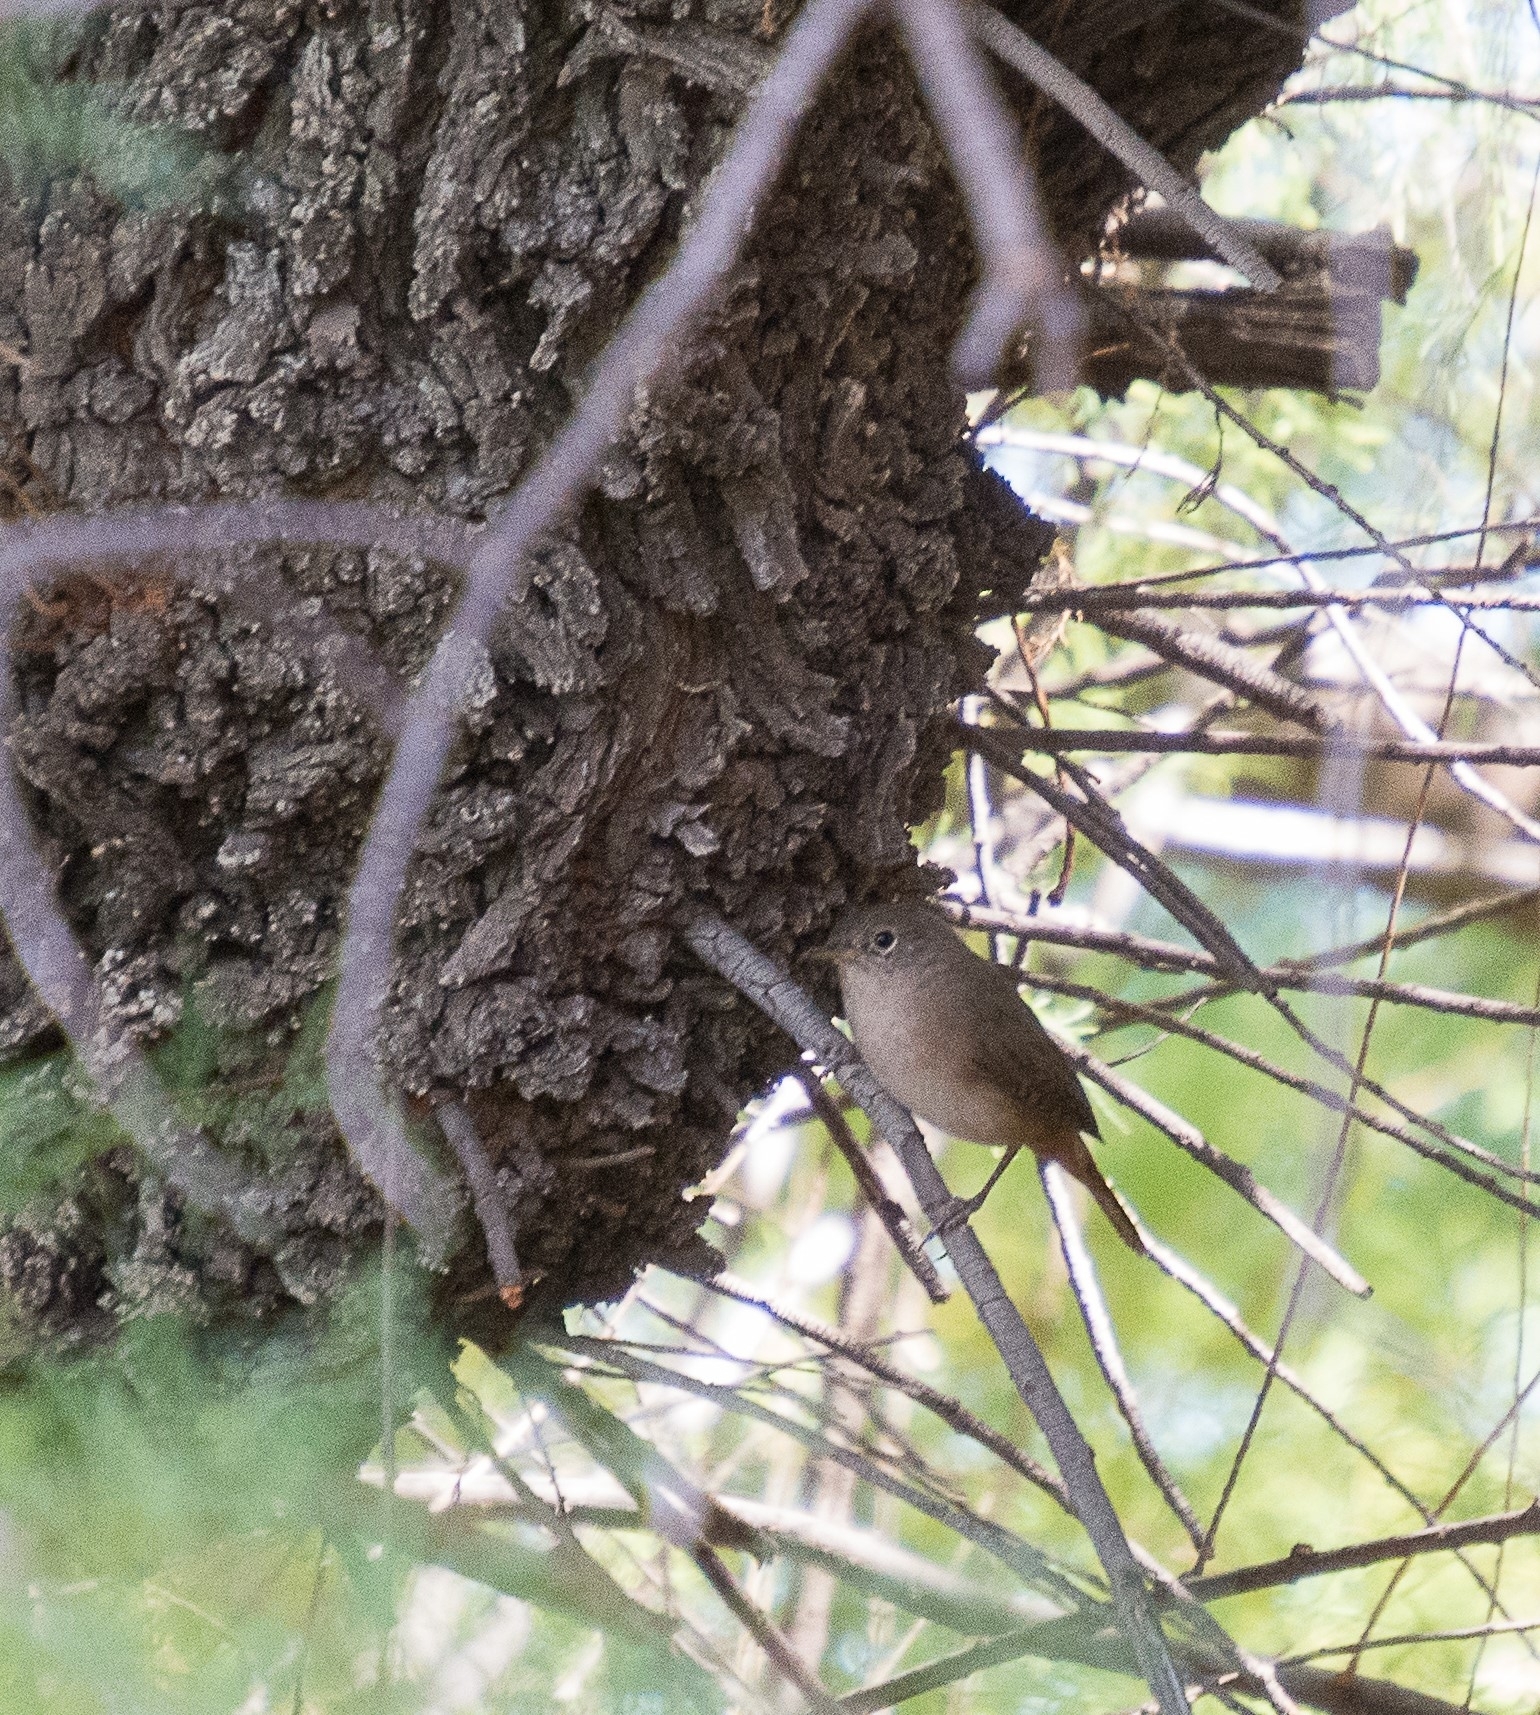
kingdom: Animalia
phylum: Chordata
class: Aves
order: Passeriformes
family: Troglodytidae
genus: Troglodytes
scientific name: Troglodytes aedon
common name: House wren
